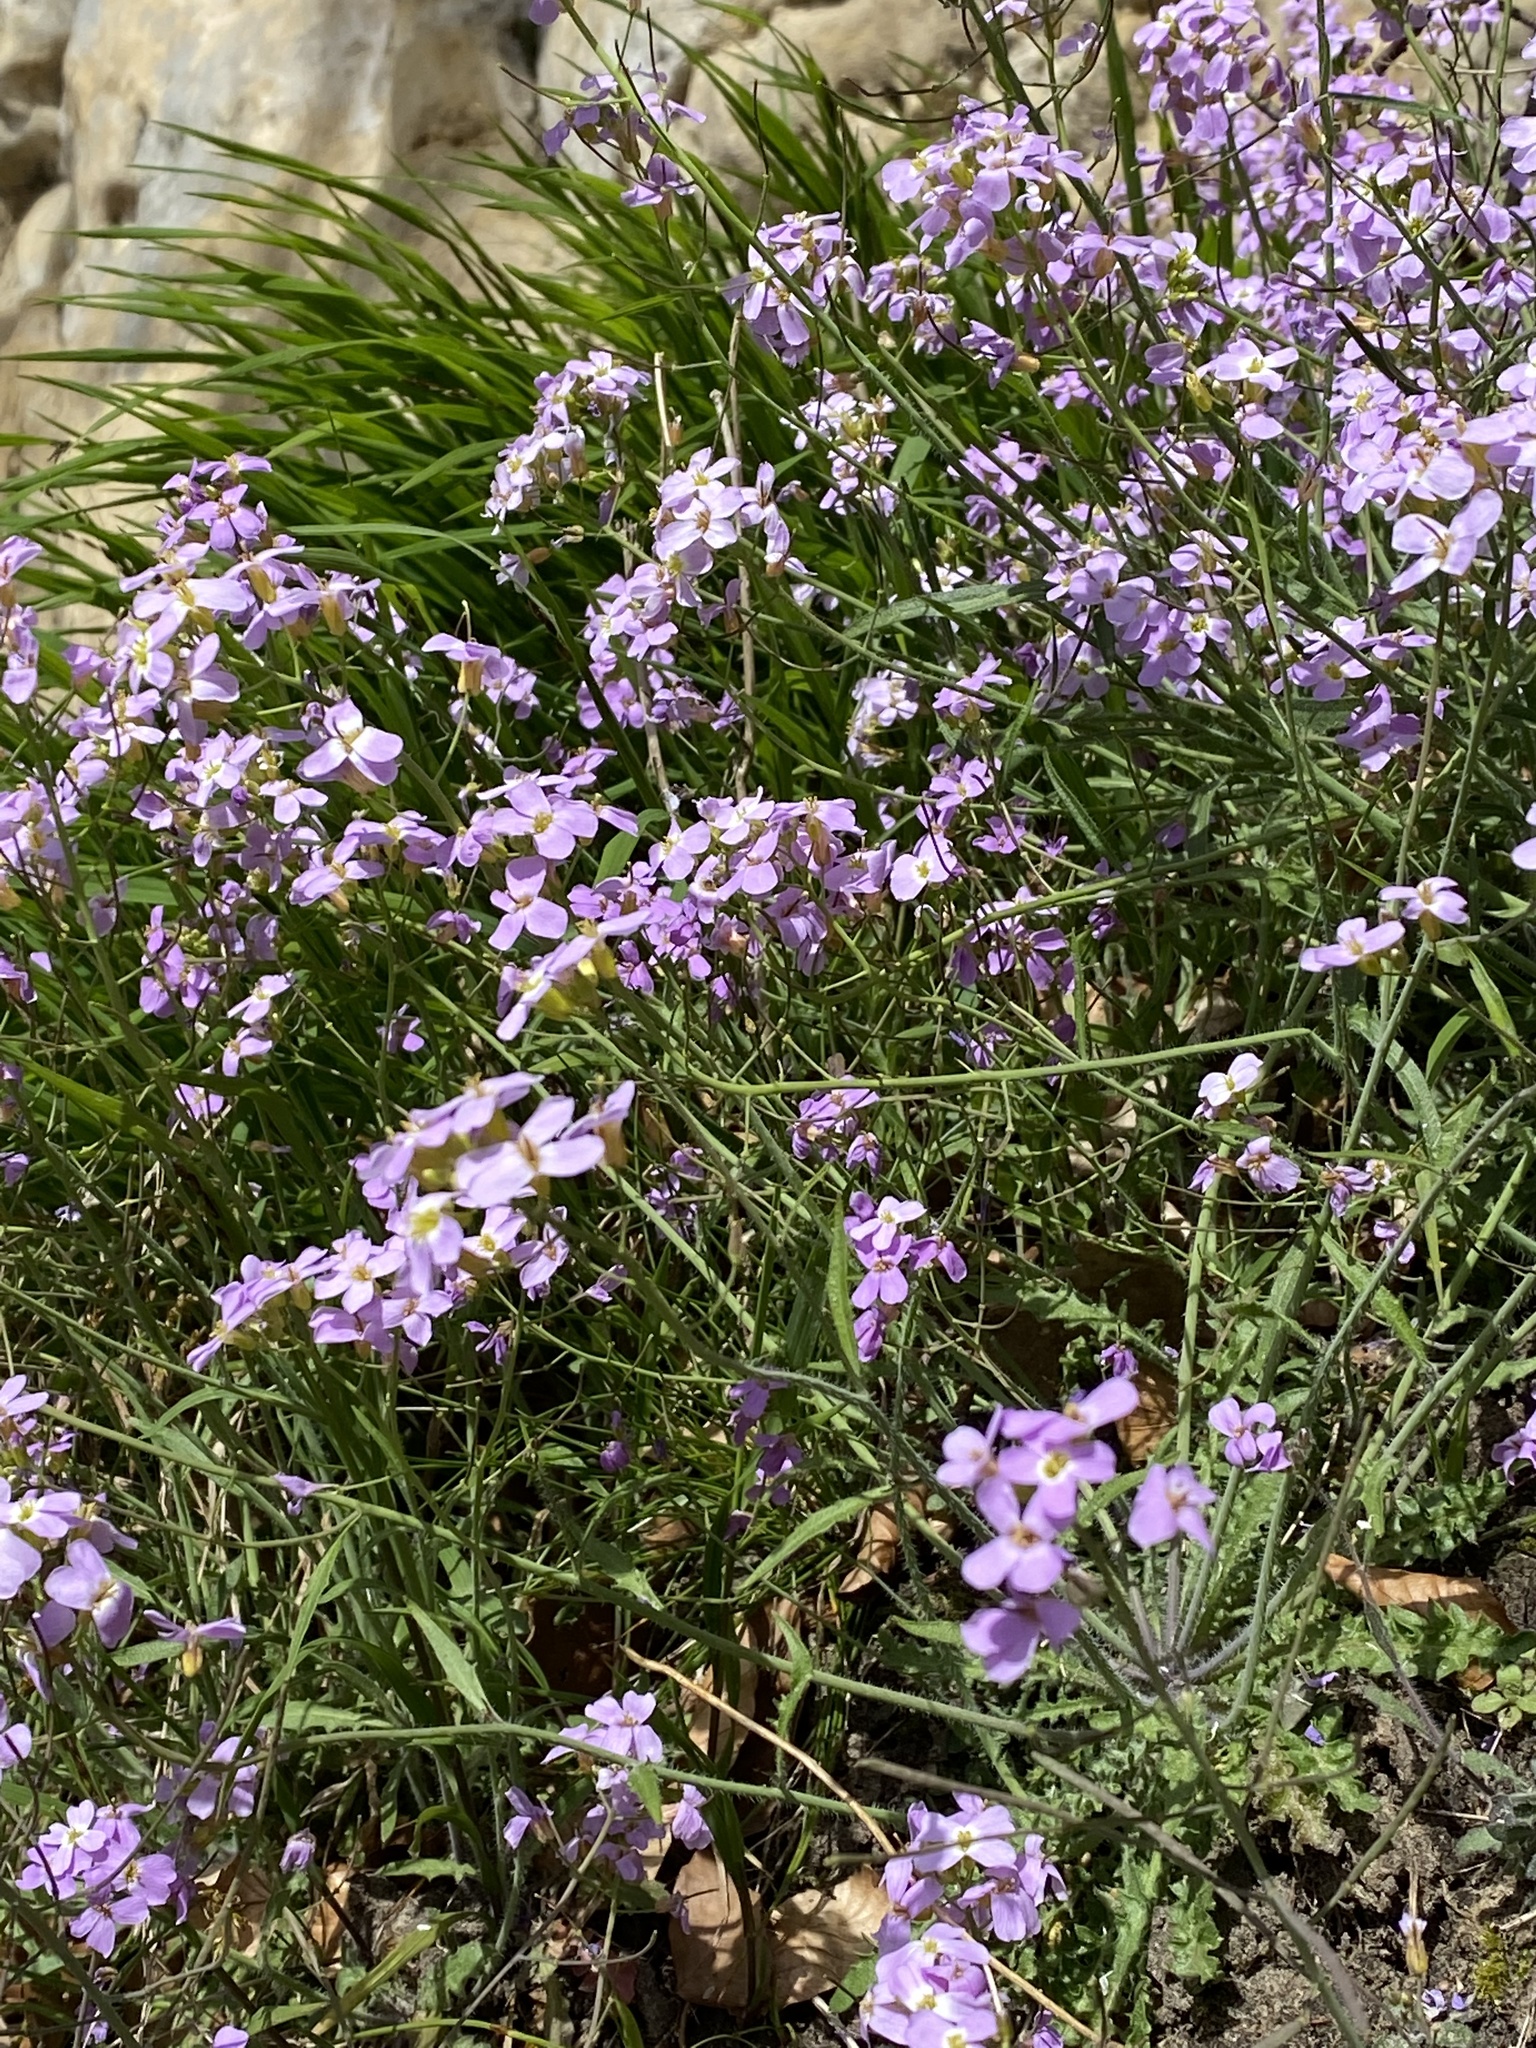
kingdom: Plantae
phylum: Tracheophyta
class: Magnoliopsida
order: Brassicales
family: Brassicaceae
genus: Arabidopsis
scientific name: Arabidopsis arenosa
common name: Sand rock-cress
